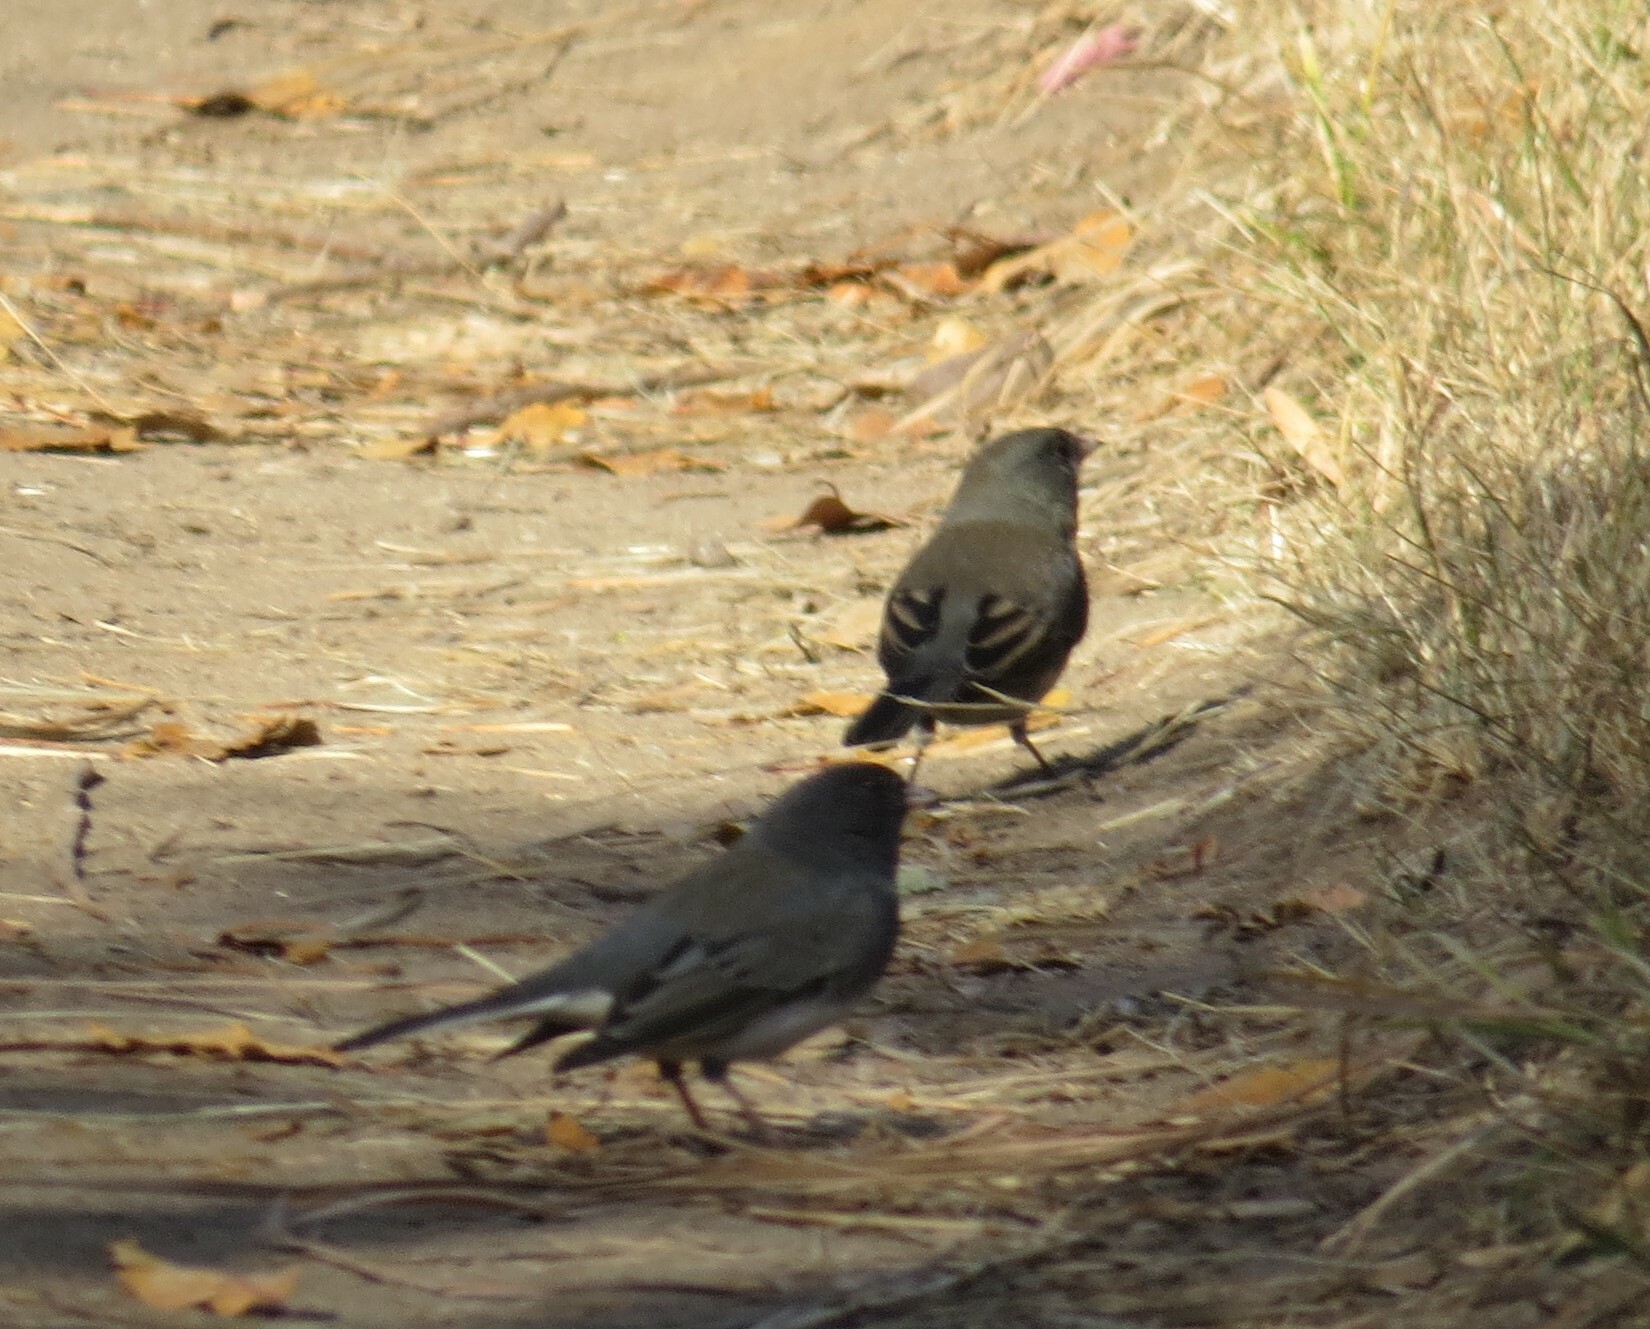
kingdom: Animalia
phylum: Chordata
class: Aves
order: Passeriformes
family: Passerellidae
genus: Junco
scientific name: Junco hyemalis
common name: Dark-eyed junco
